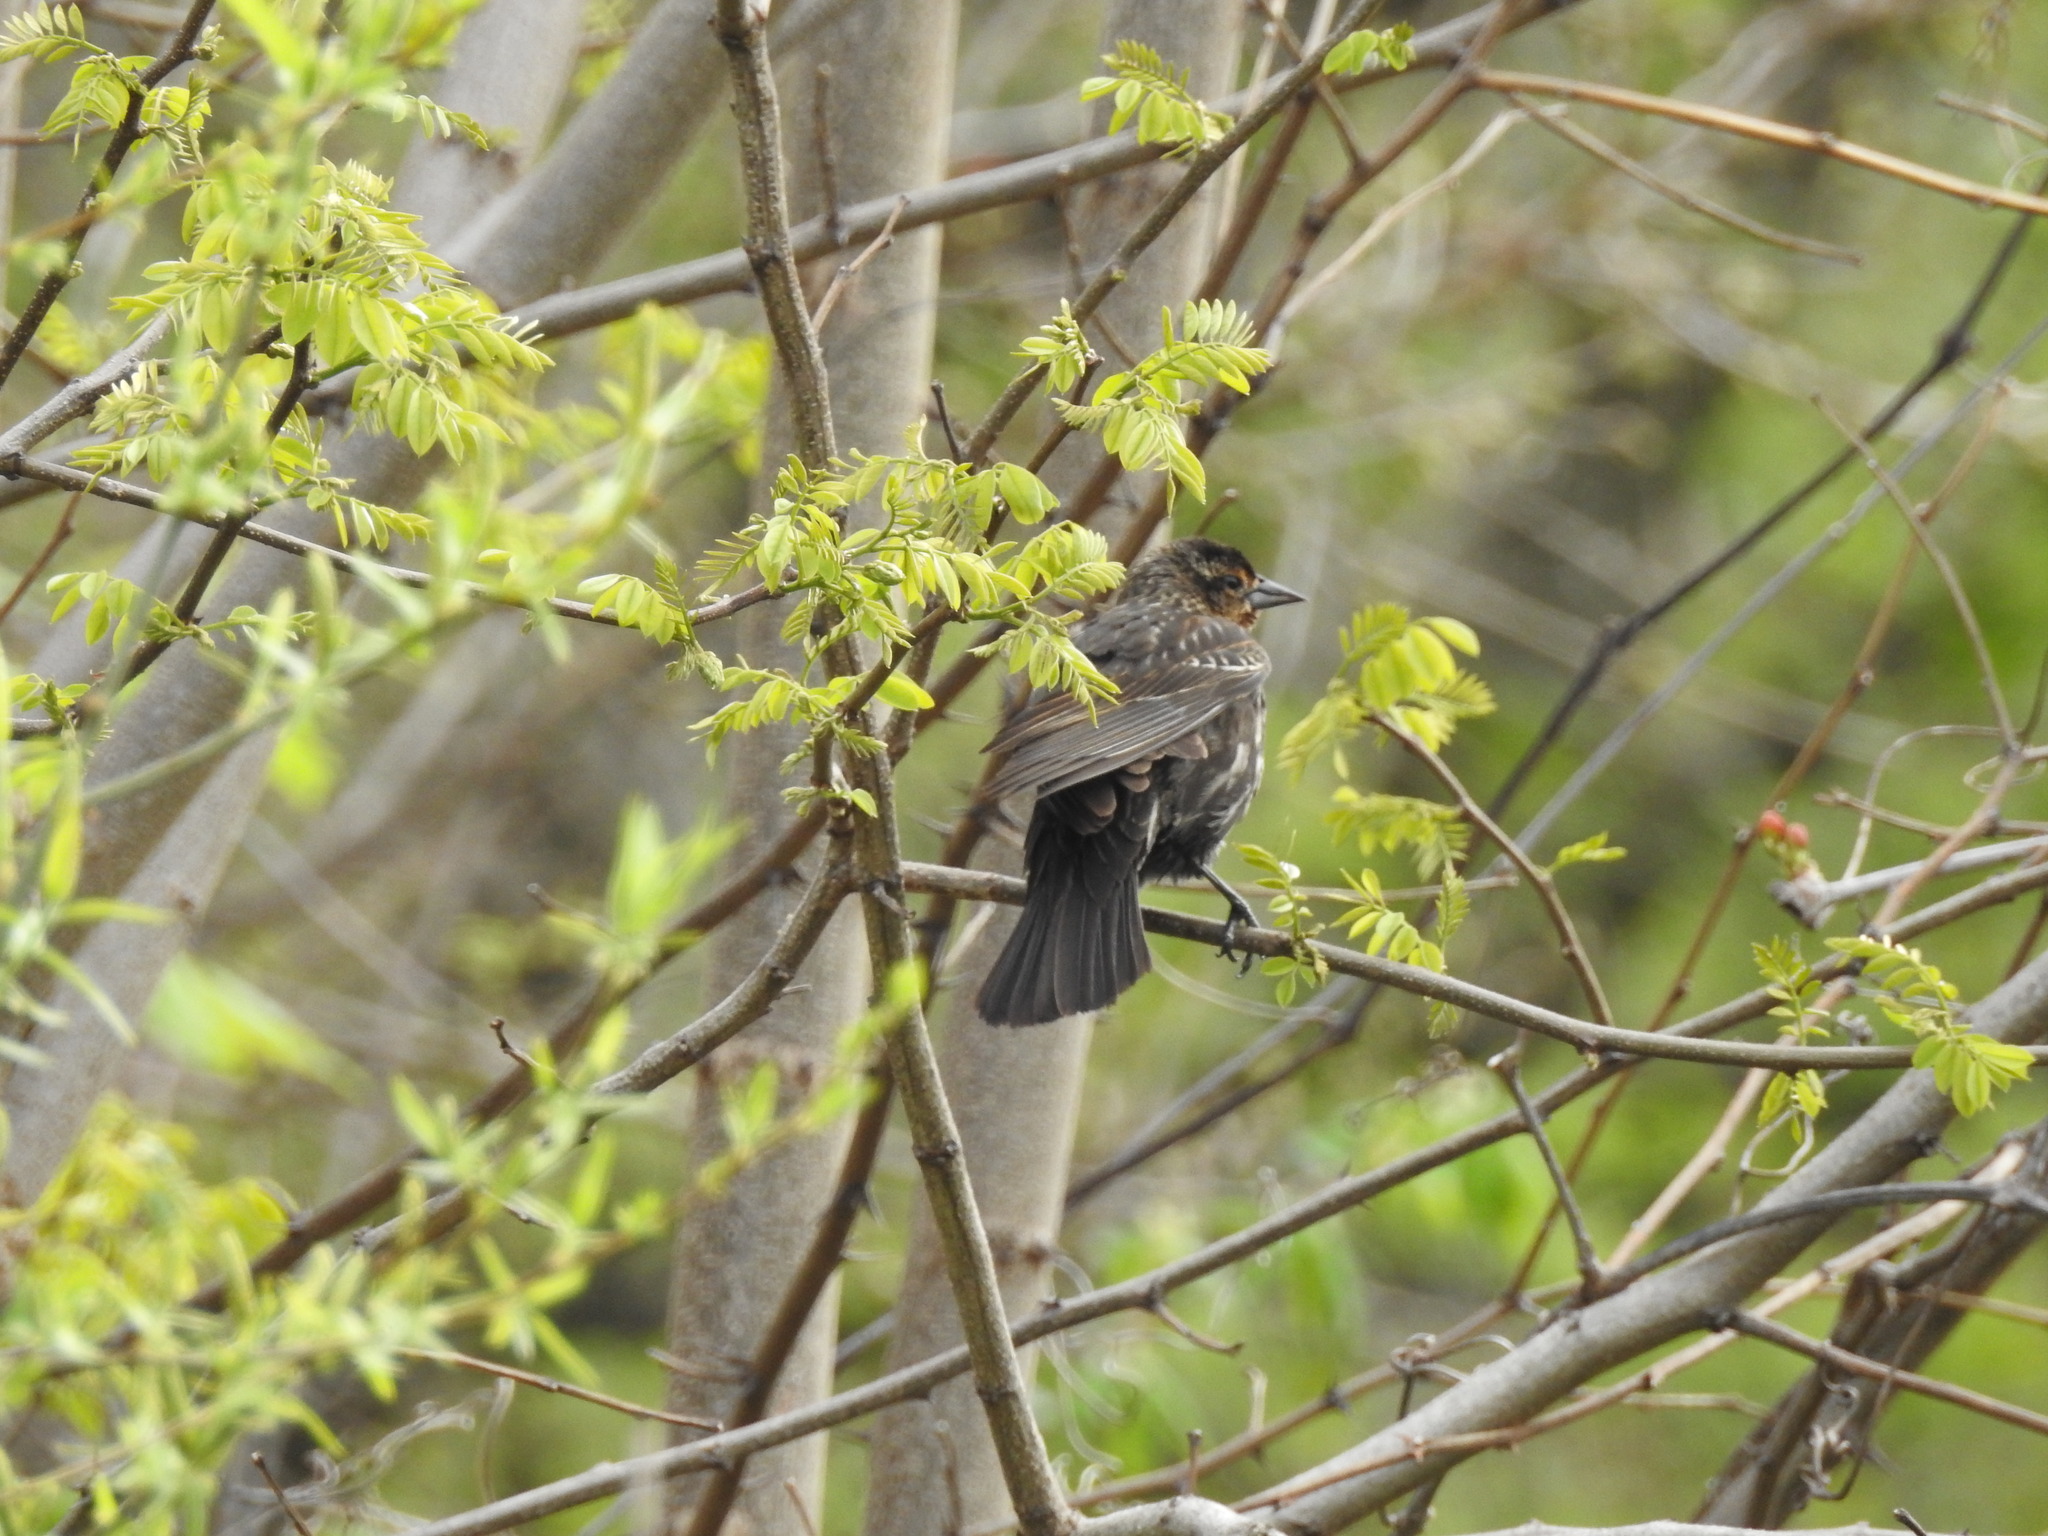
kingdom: Animalia
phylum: Chordata
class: Aves
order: Passeriformes
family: Icteridae
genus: Agelaius
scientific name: Agelaius phoeniceus
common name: Red-winged blackbird
